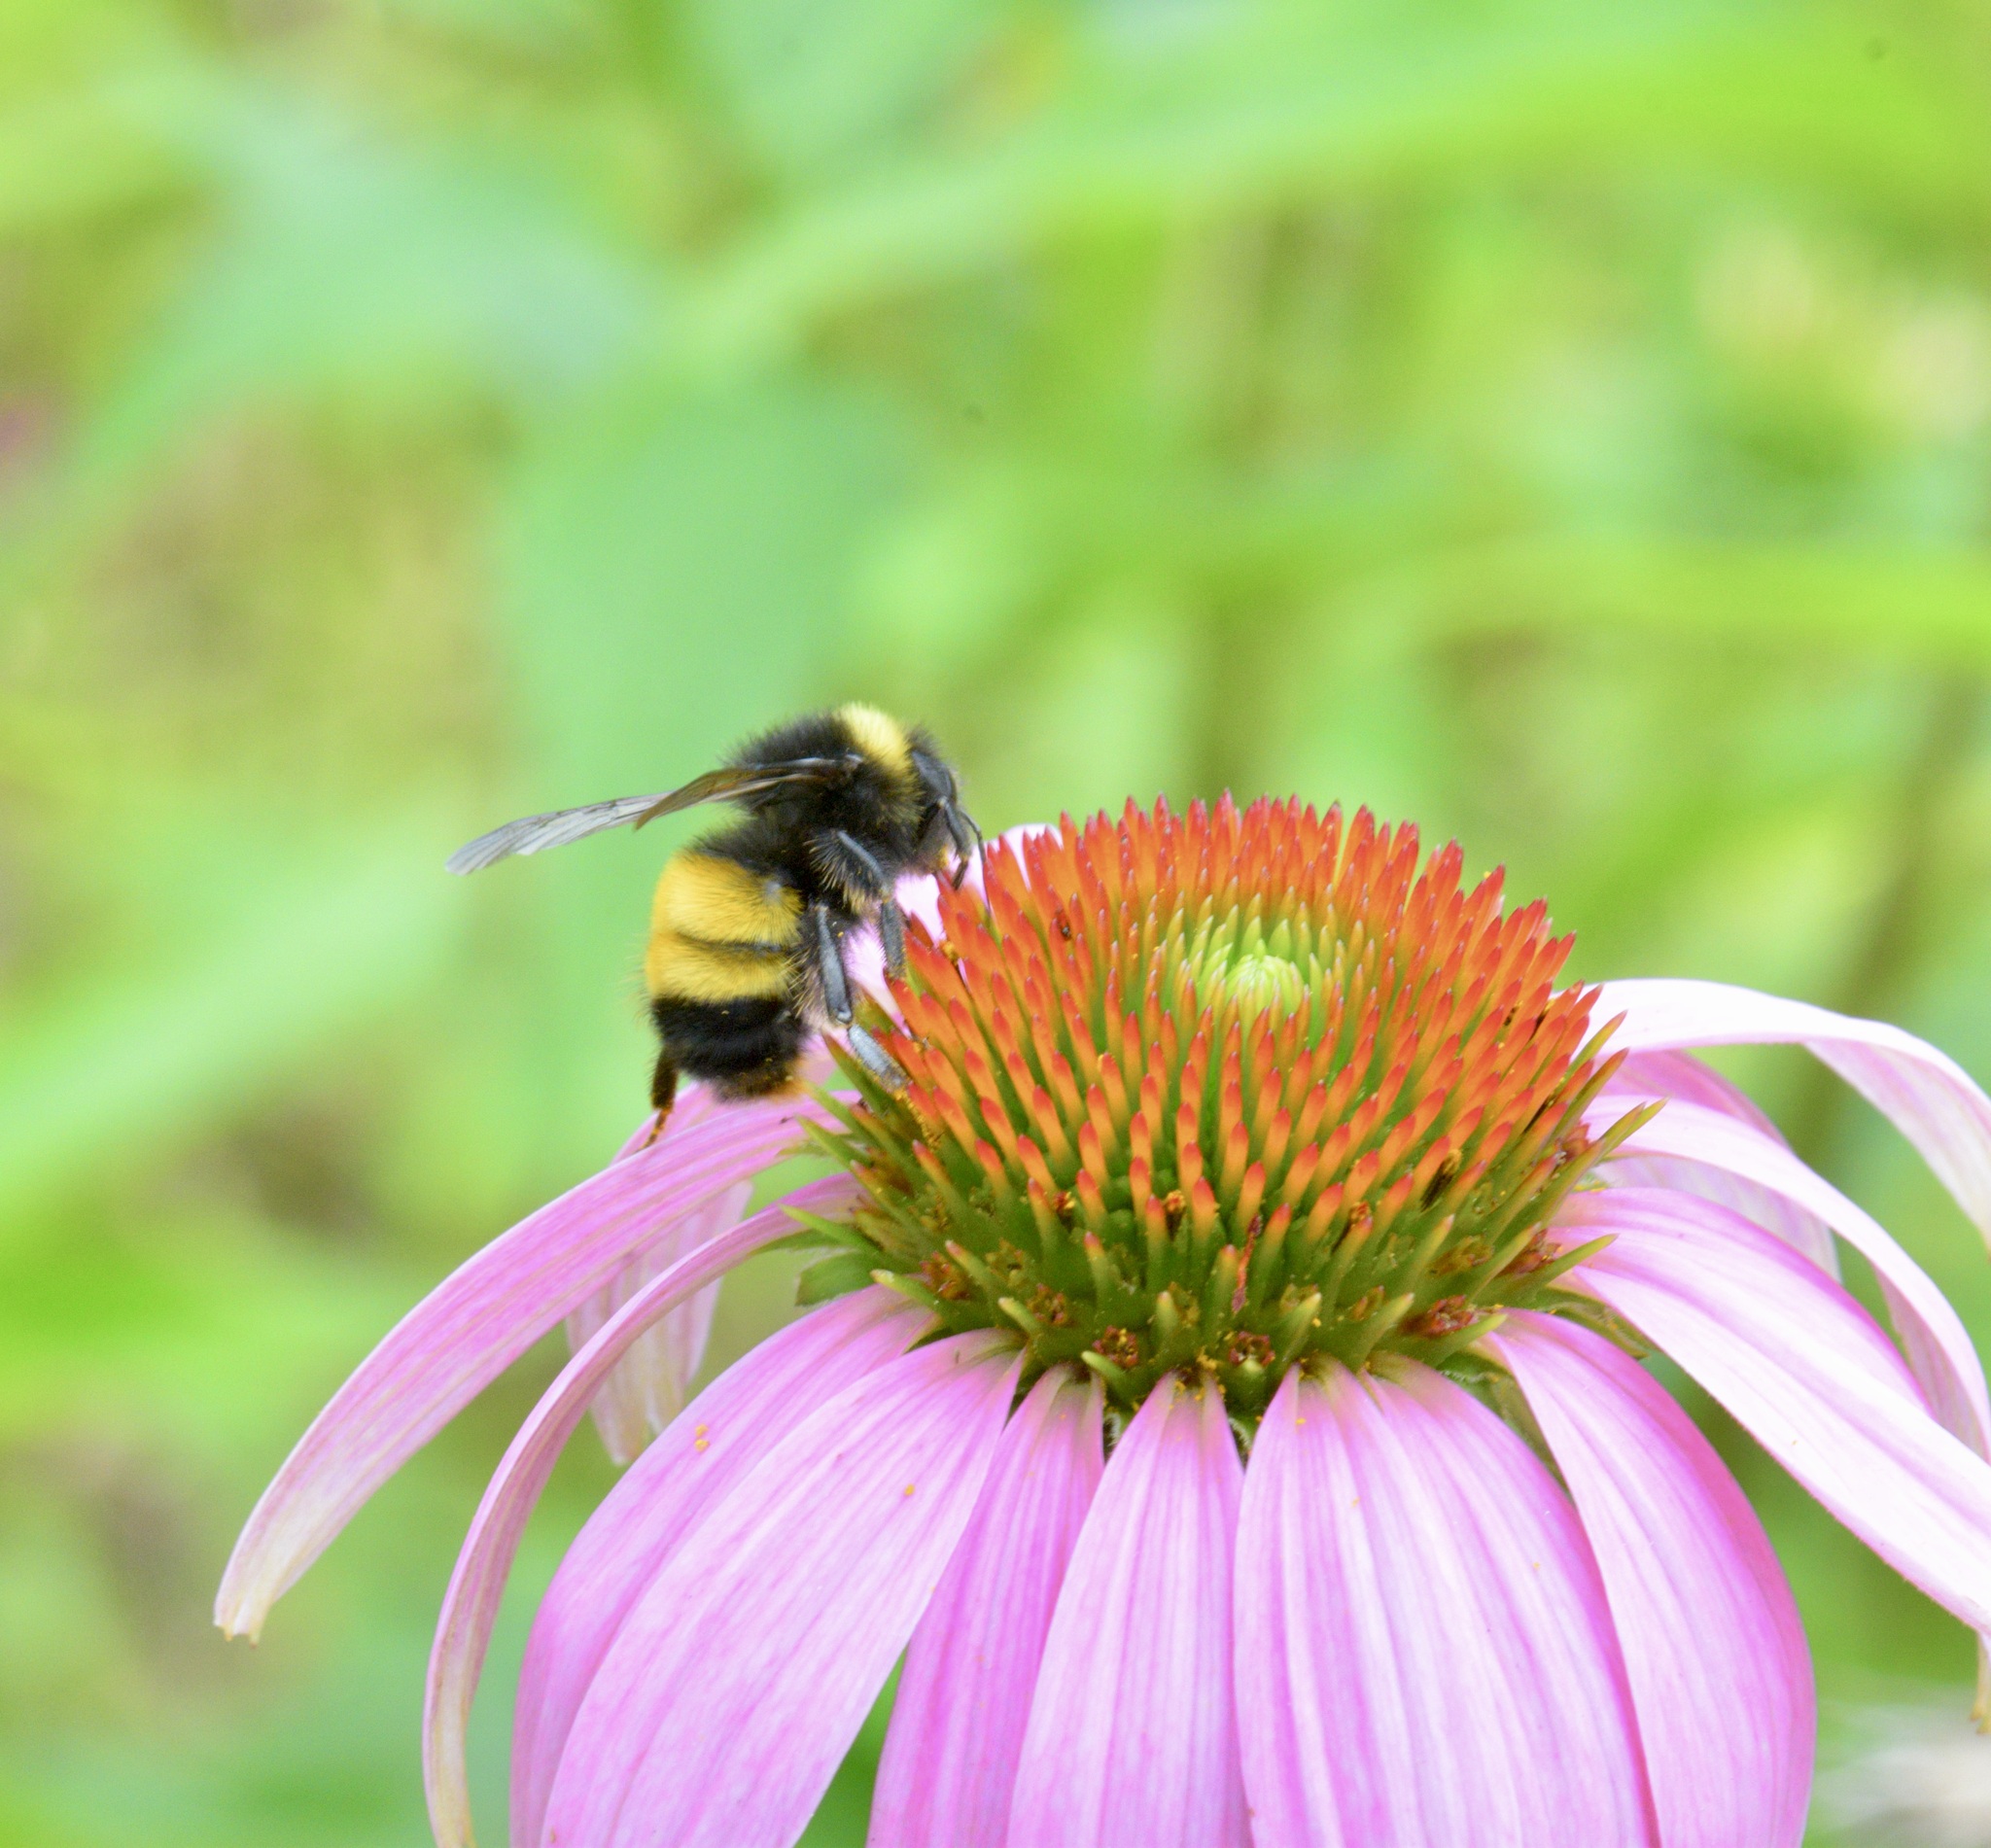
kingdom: Animalia
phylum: Arthropoda
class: Insecta
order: Hymenoptera
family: Apidae
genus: Bombus
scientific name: Bombus terricola
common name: Yellow-banded bumble bee
